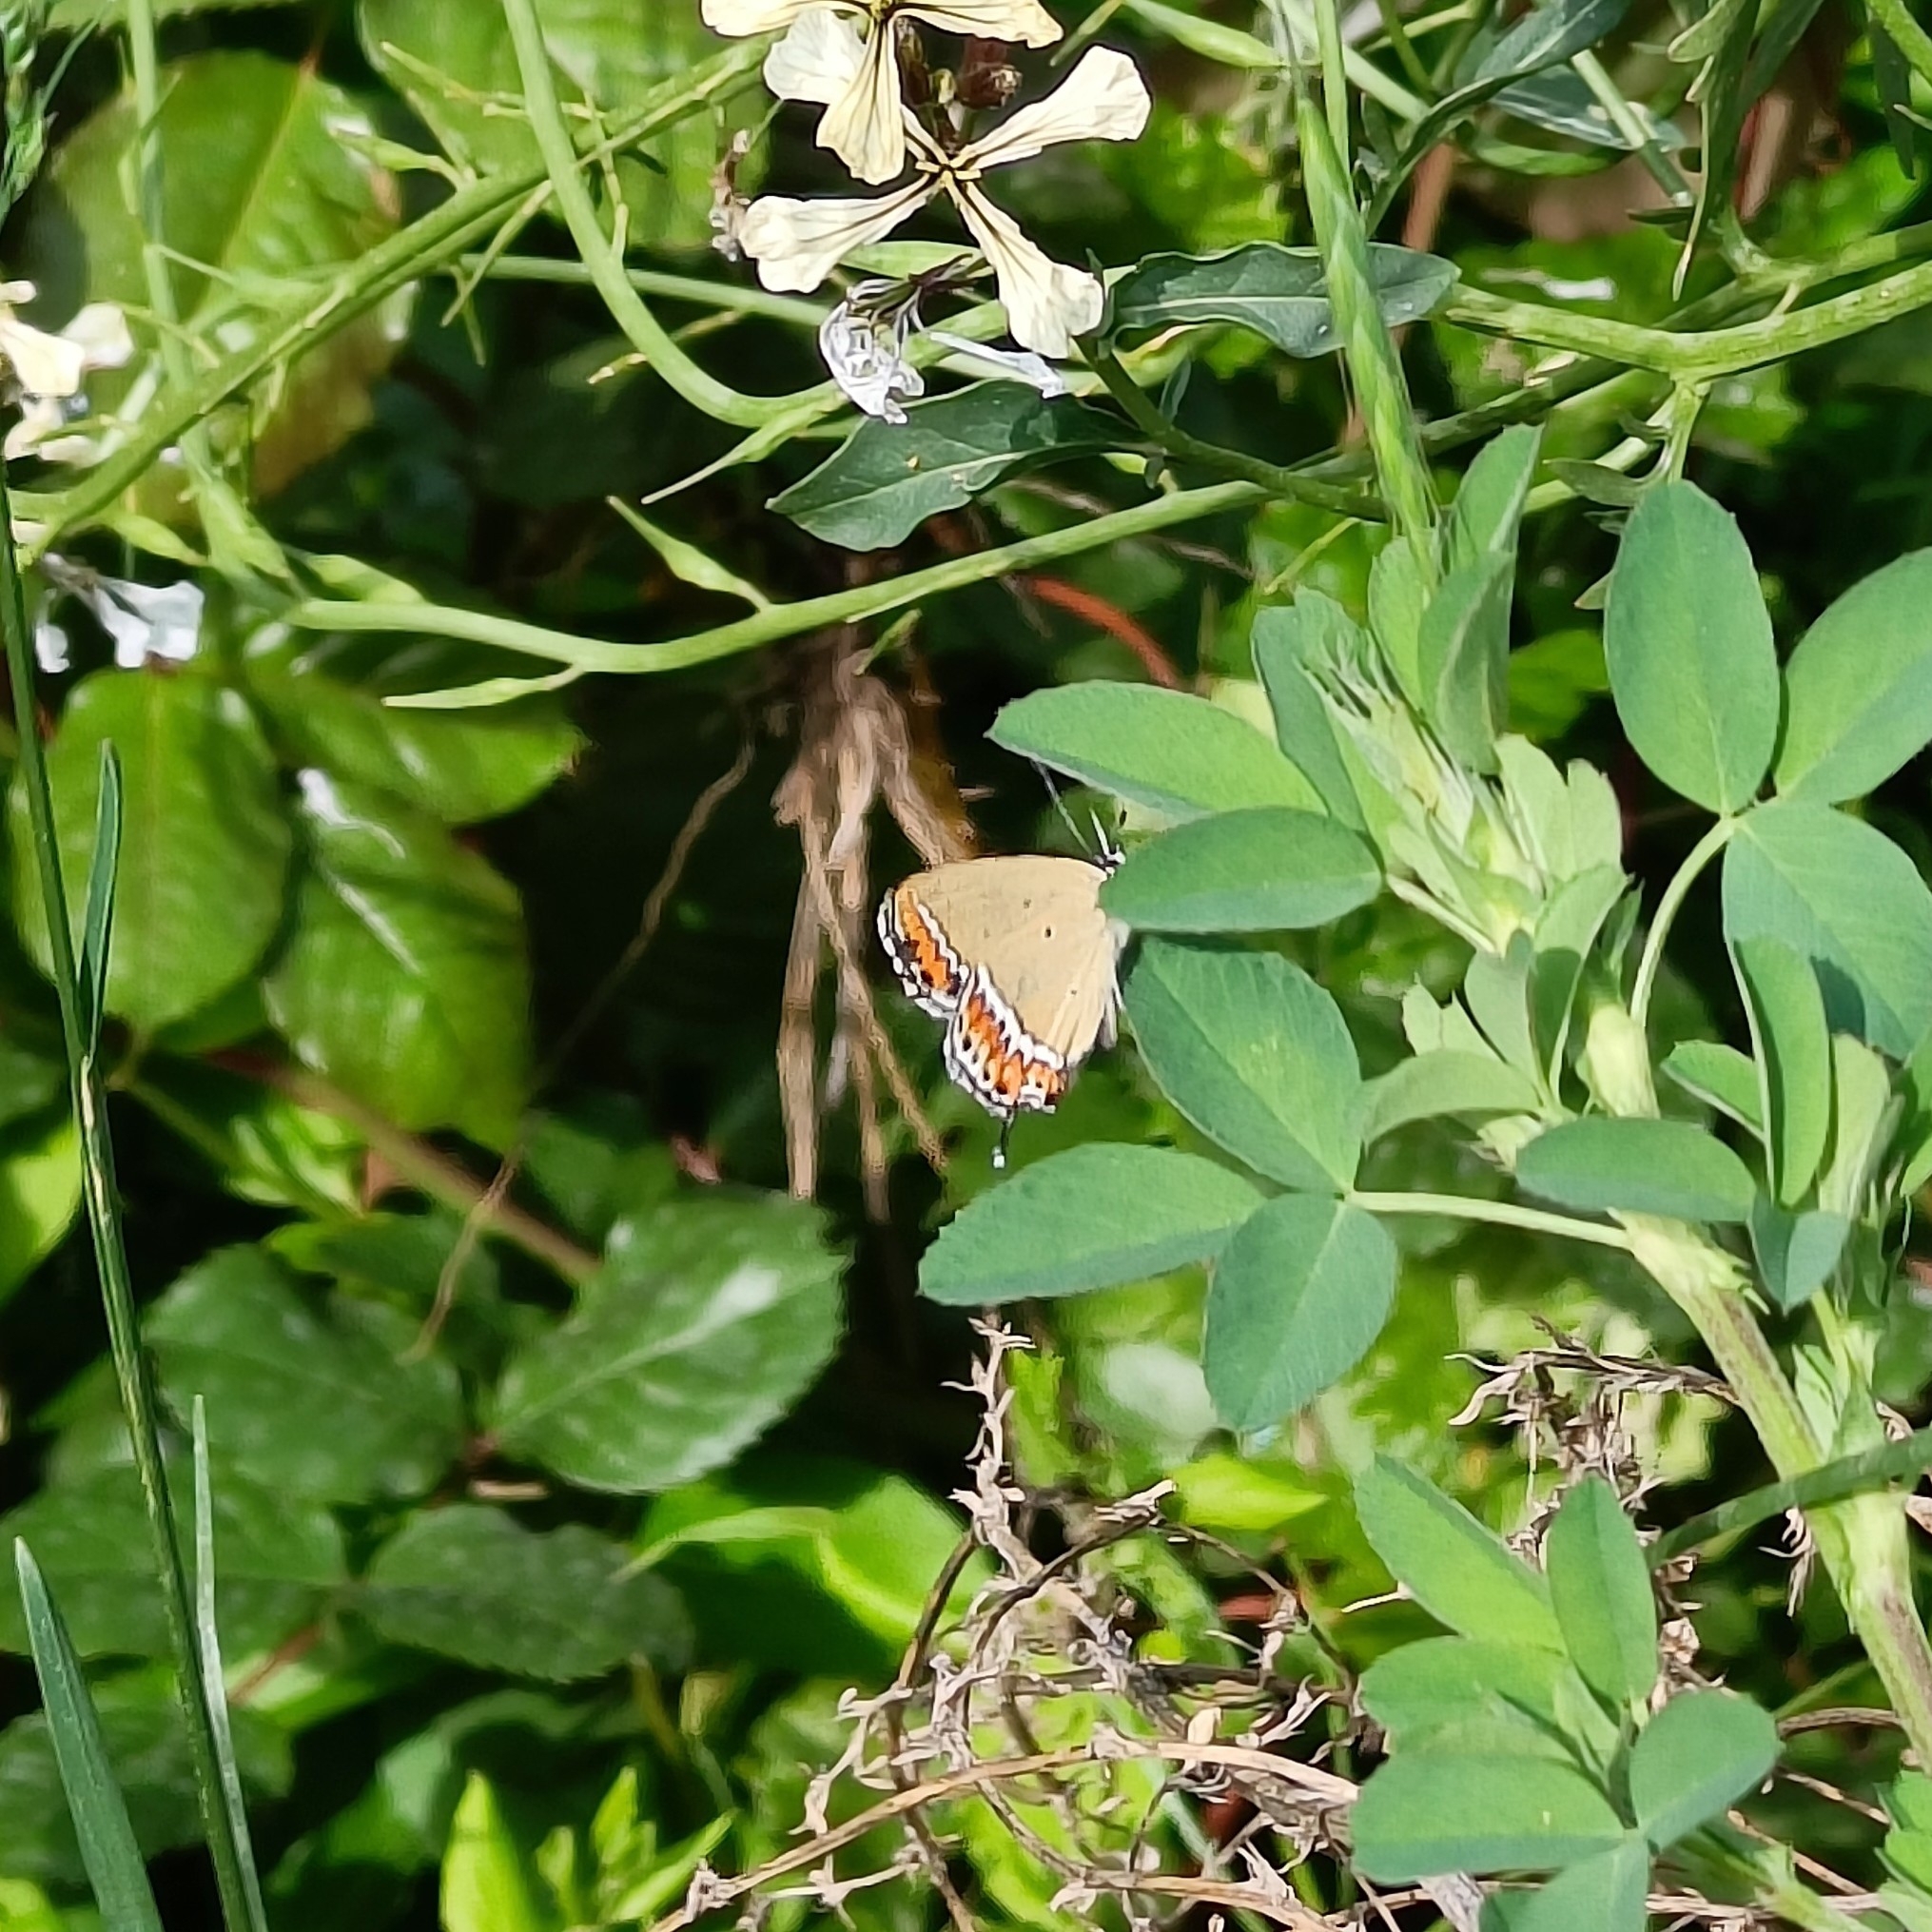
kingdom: Animalia
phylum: Arthropoda
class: Insecta
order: Lepidoptera
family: Lycaenidae
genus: Heliophorus
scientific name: Heliophorus sena
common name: Sorrel sapphire
